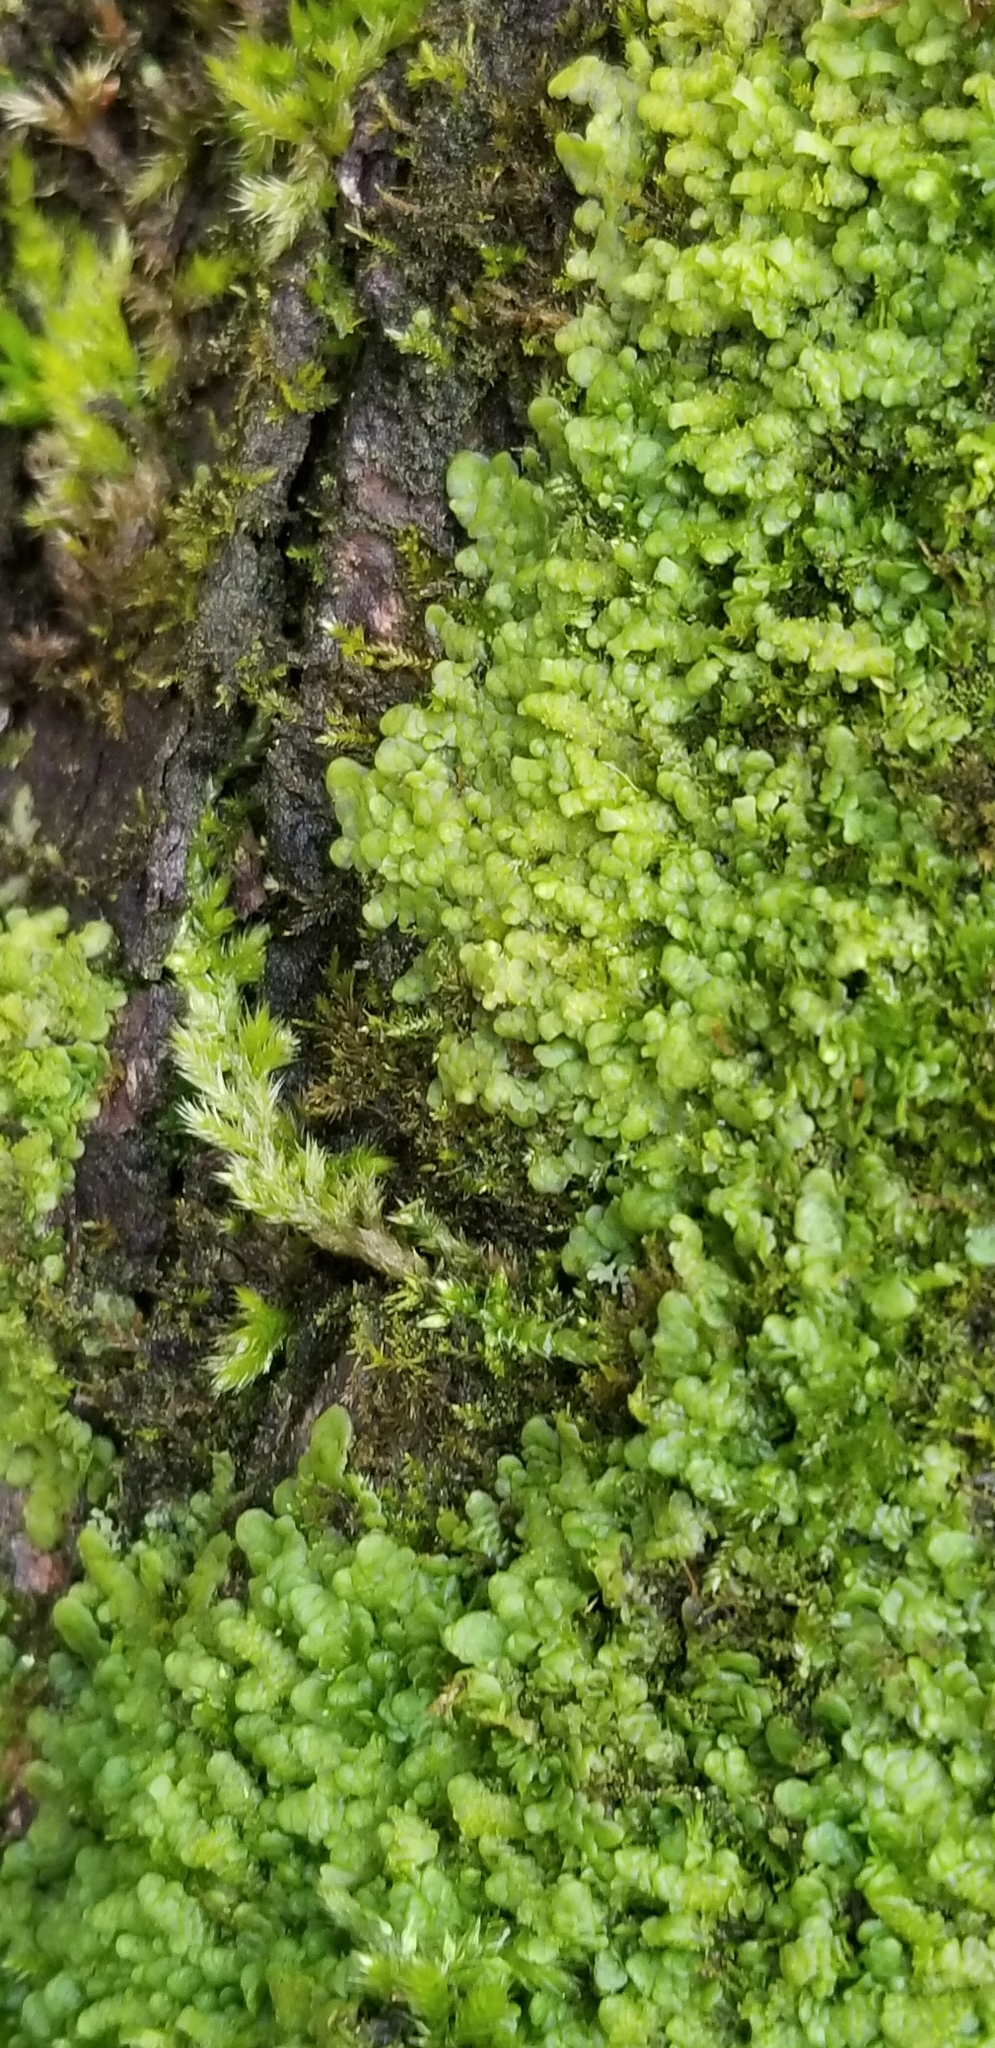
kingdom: Plantae
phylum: Marchantiophyta
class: Jungermanniopsida
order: Porellales
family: Radulaceae
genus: Radula
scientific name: Radula complanata
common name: Flat-leaved scalewort
